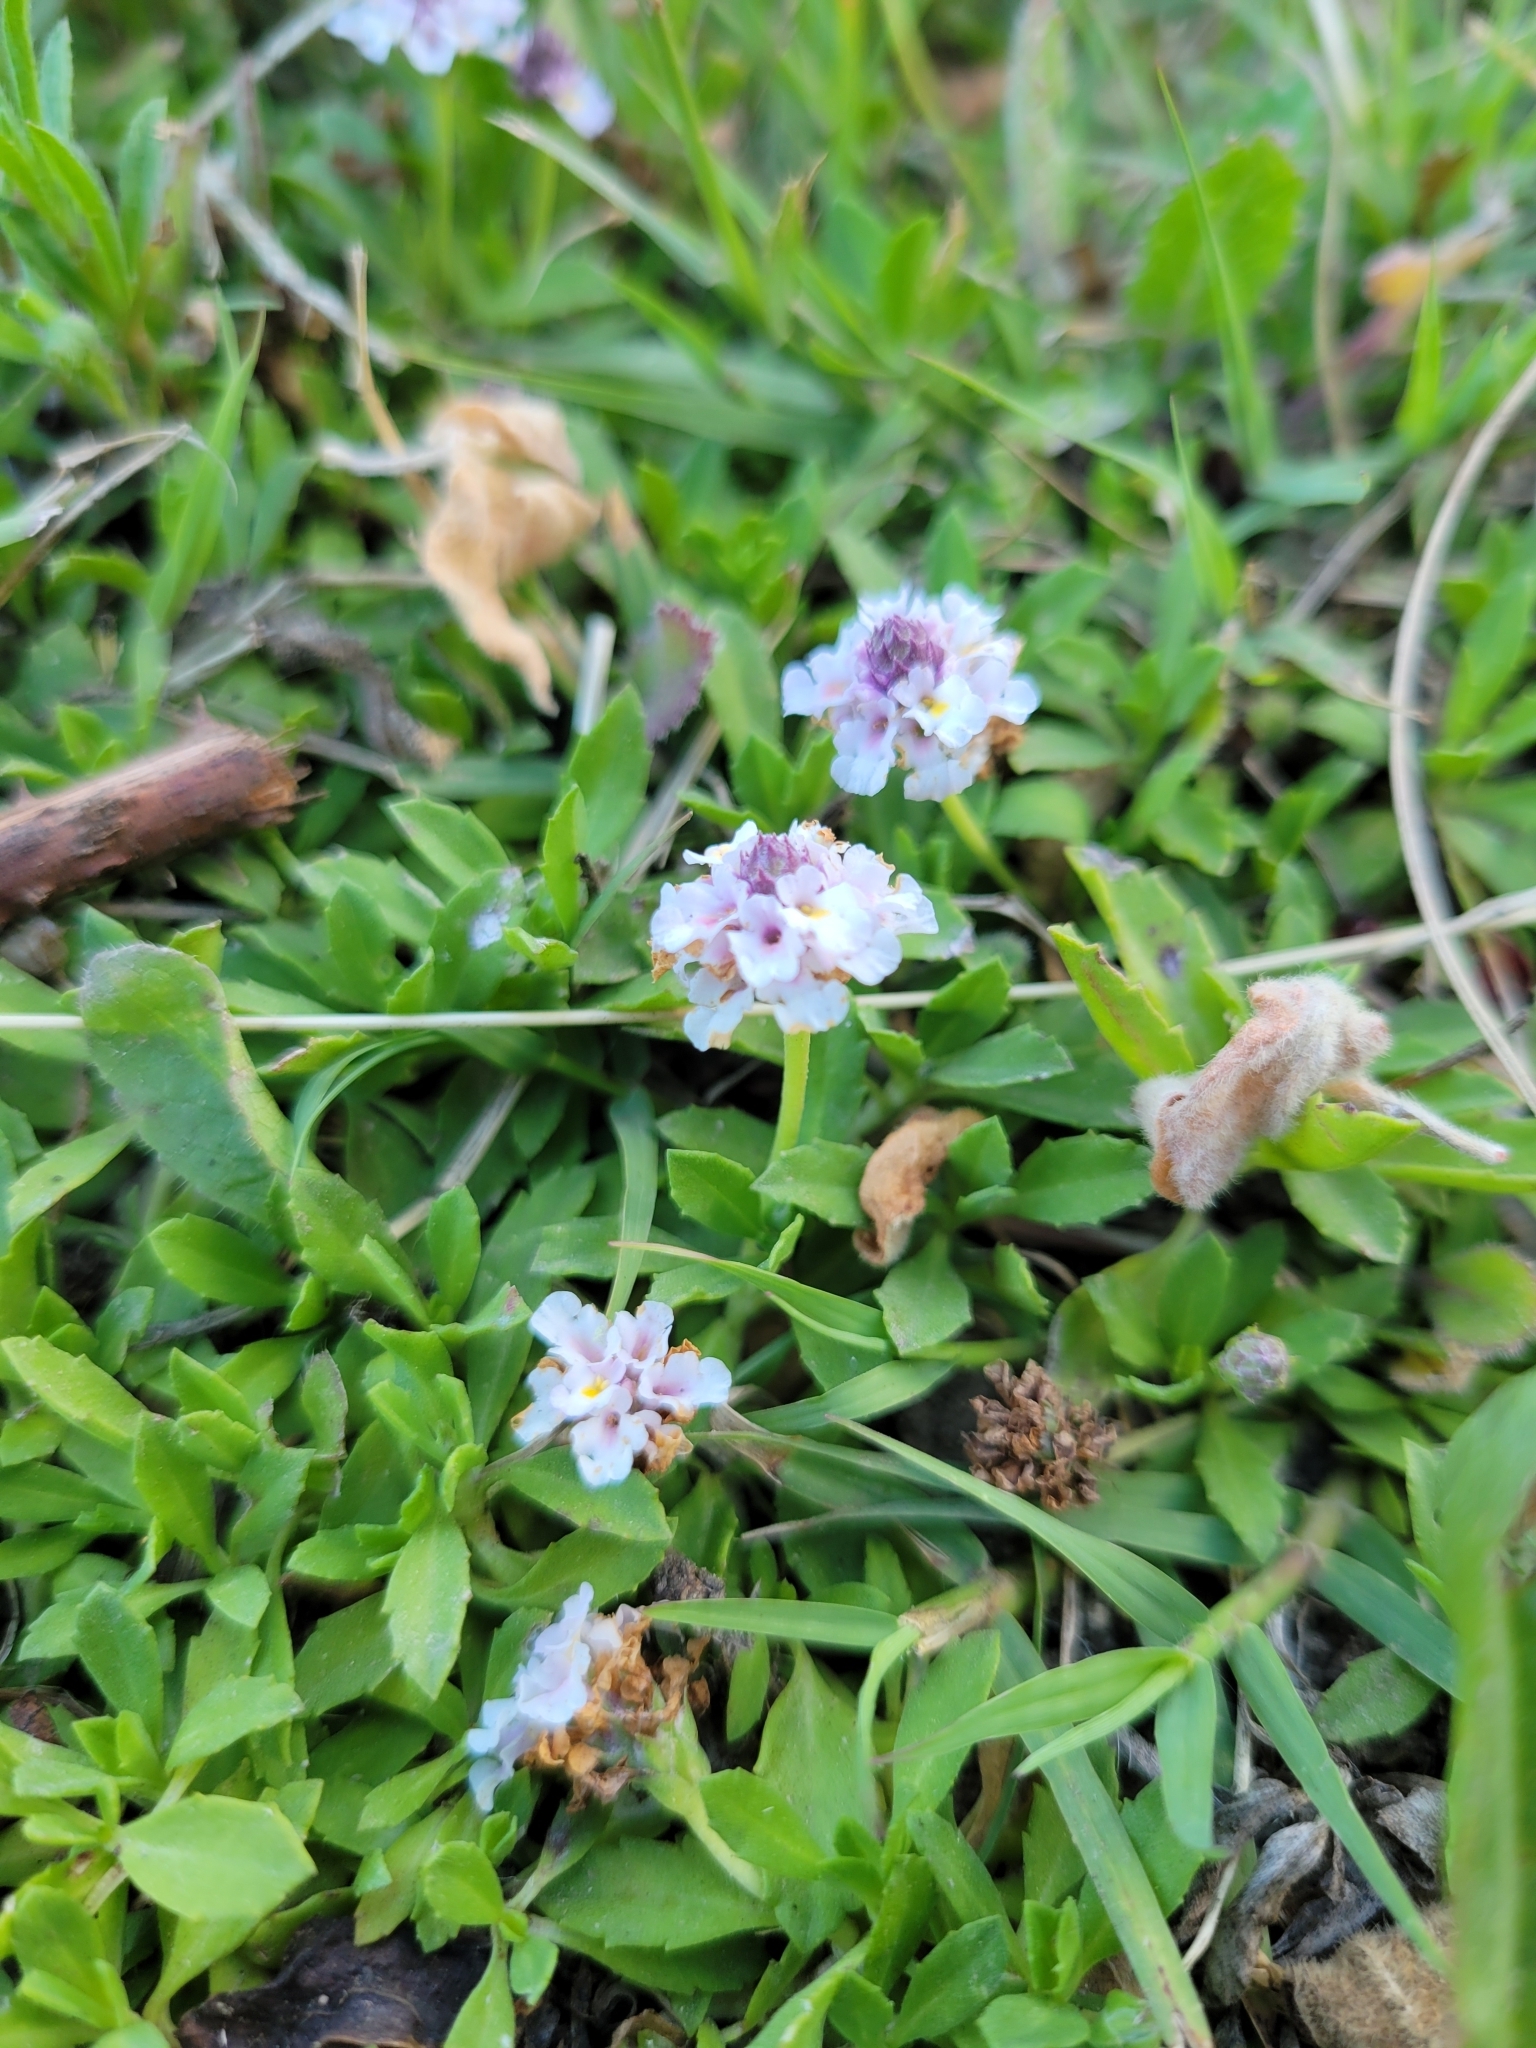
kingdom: Plantae
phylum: Tracheophyta
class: Magnoliopsida
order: Lamiales
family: Verbenaceae
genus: Phyla
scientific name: Phyla nodiflora
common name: Frogfruit
